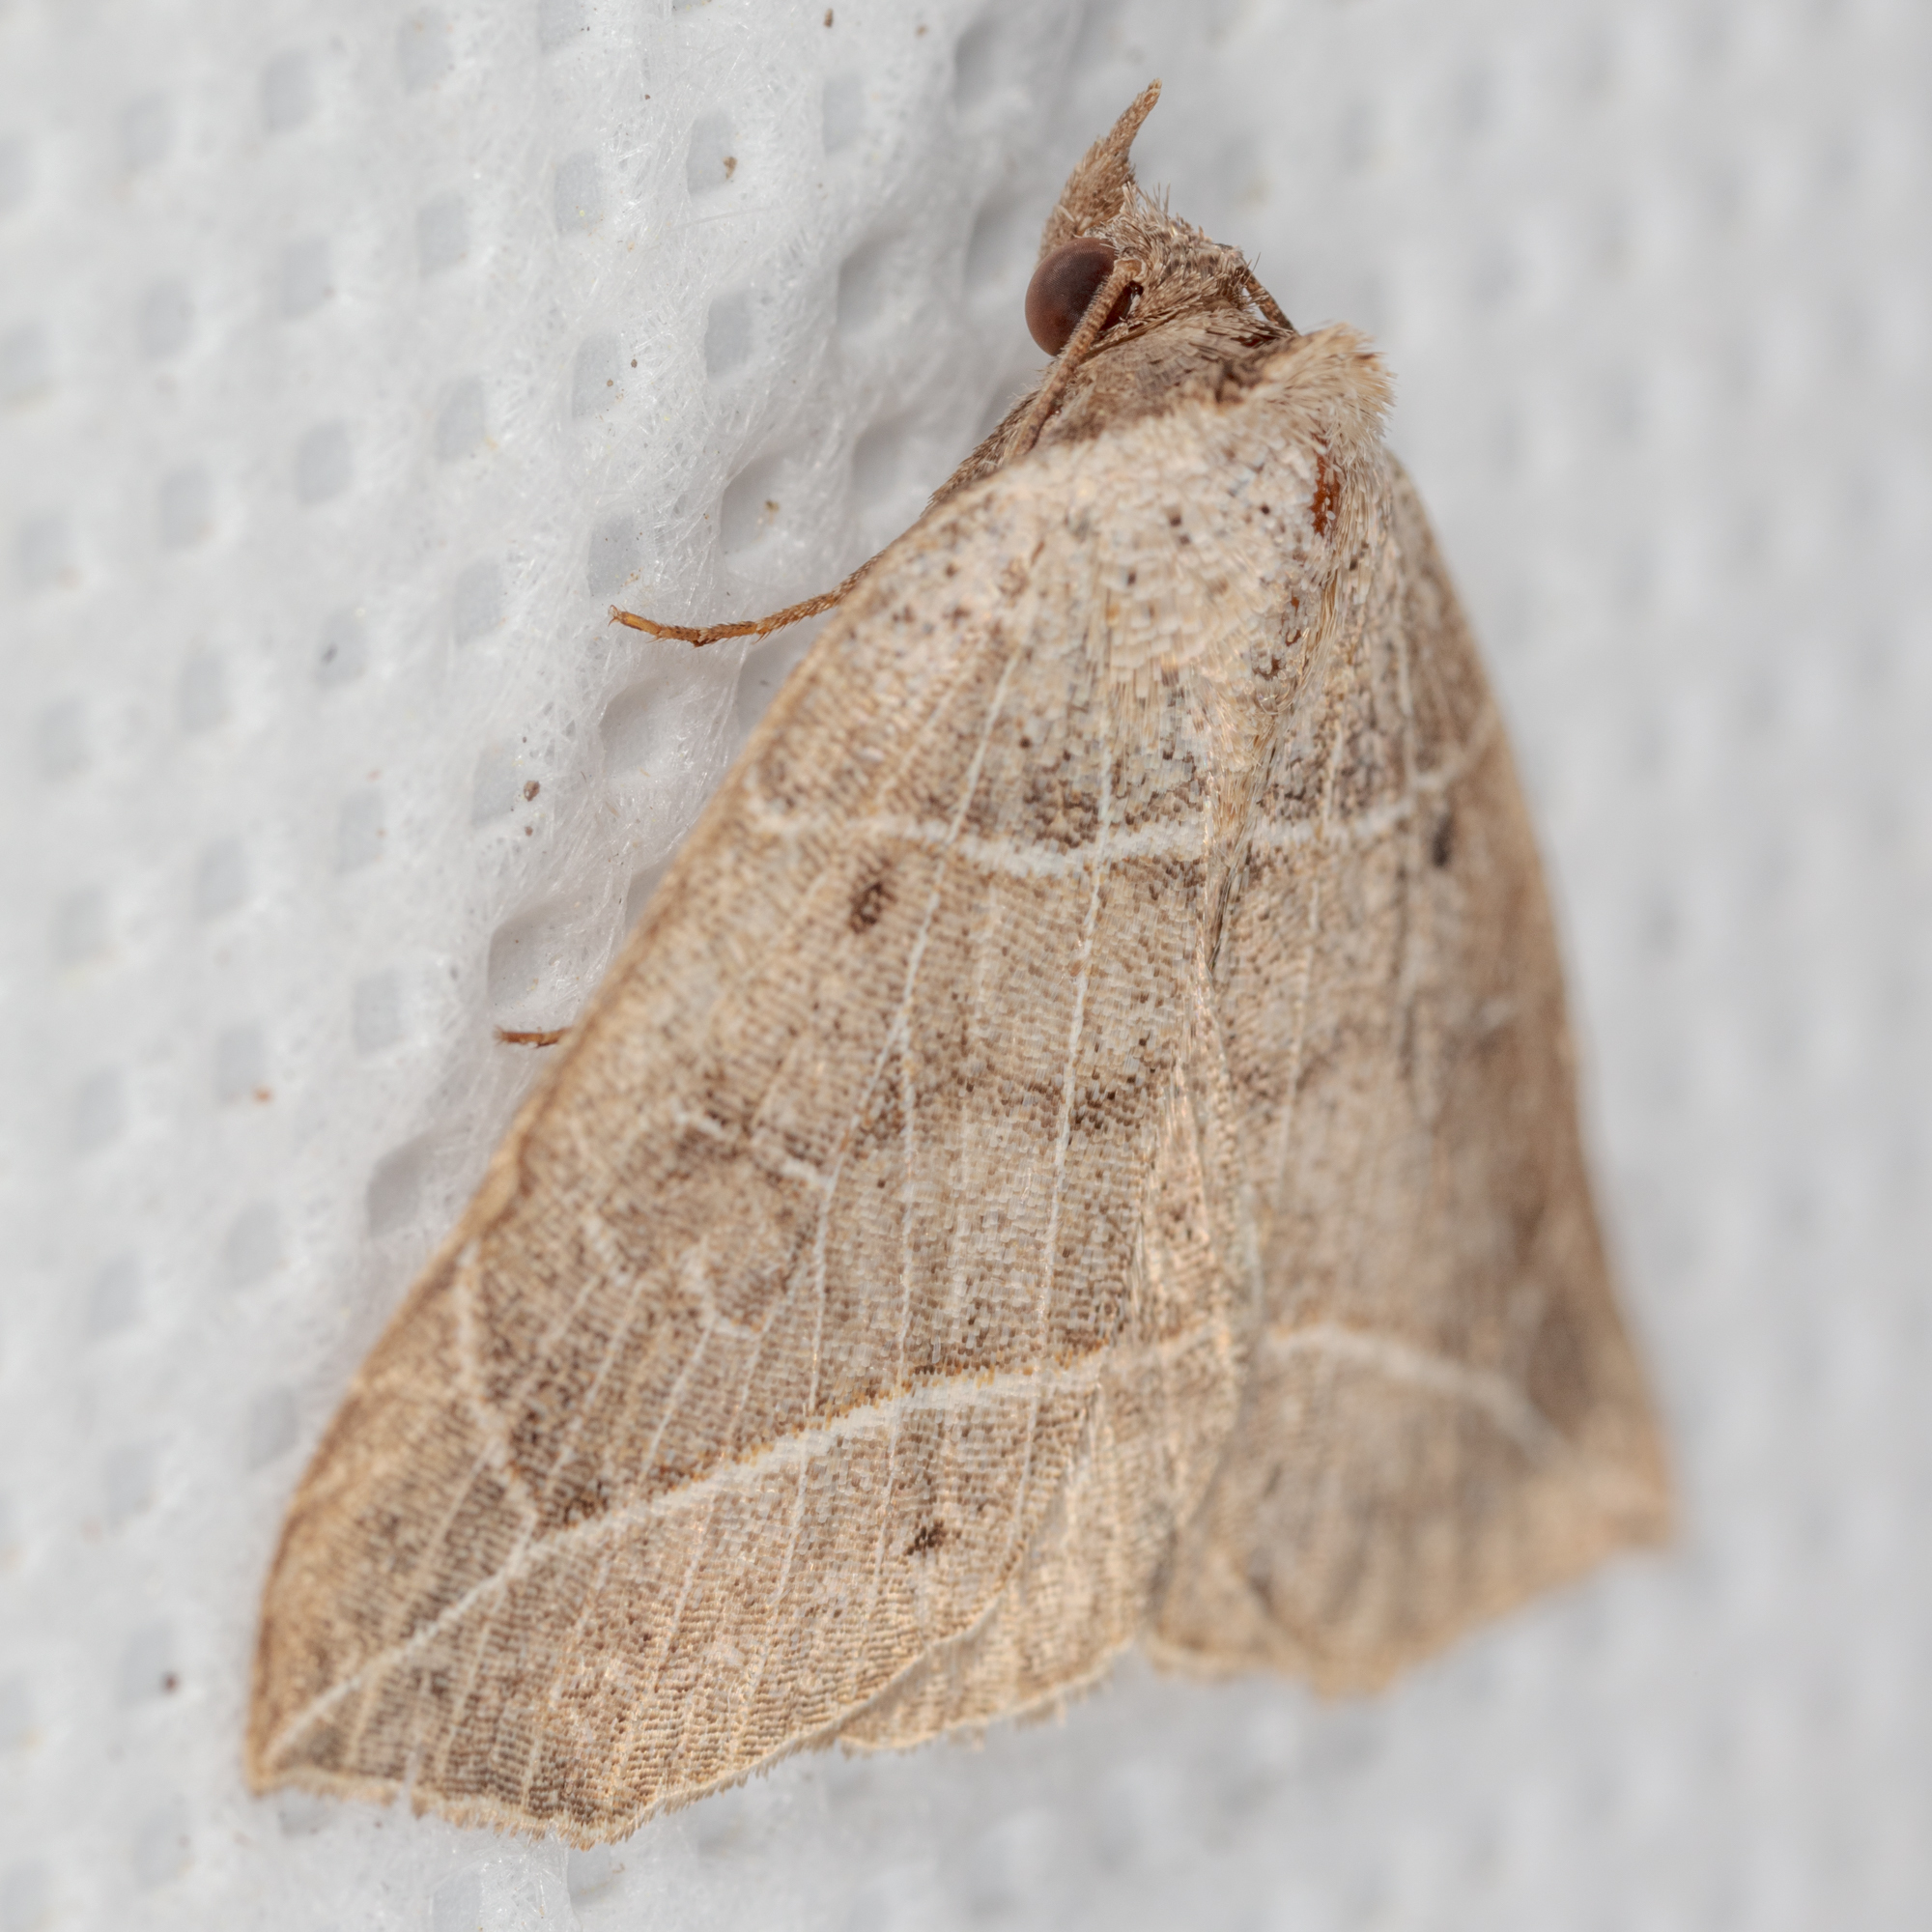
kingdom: Animalia
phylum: Arthropoda
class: Insecta
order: Lepidoptera
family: Erebidae
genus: Isogona
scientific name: Isogona tenuis
